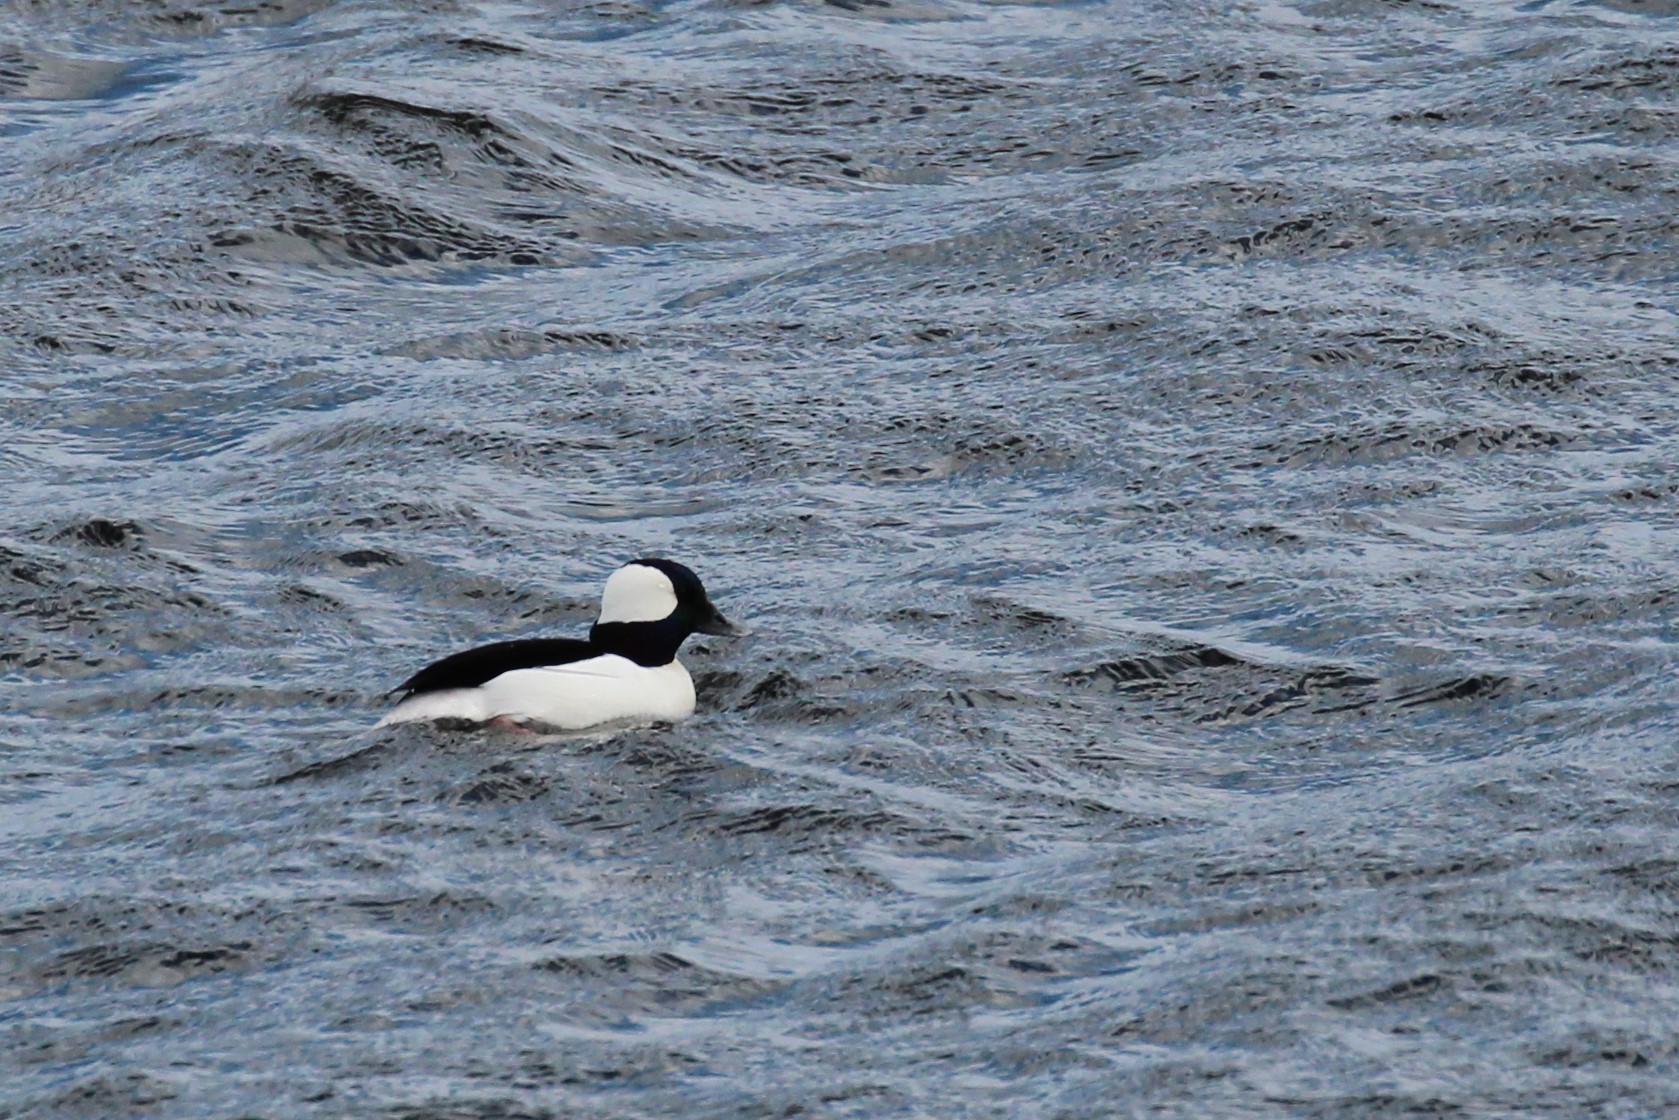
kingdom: Animalia
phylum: Chordata
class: Aves
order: Anseriformes
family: Anatidae
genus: Bucephala
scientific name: Bucephala albeola
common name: Bufflehead
